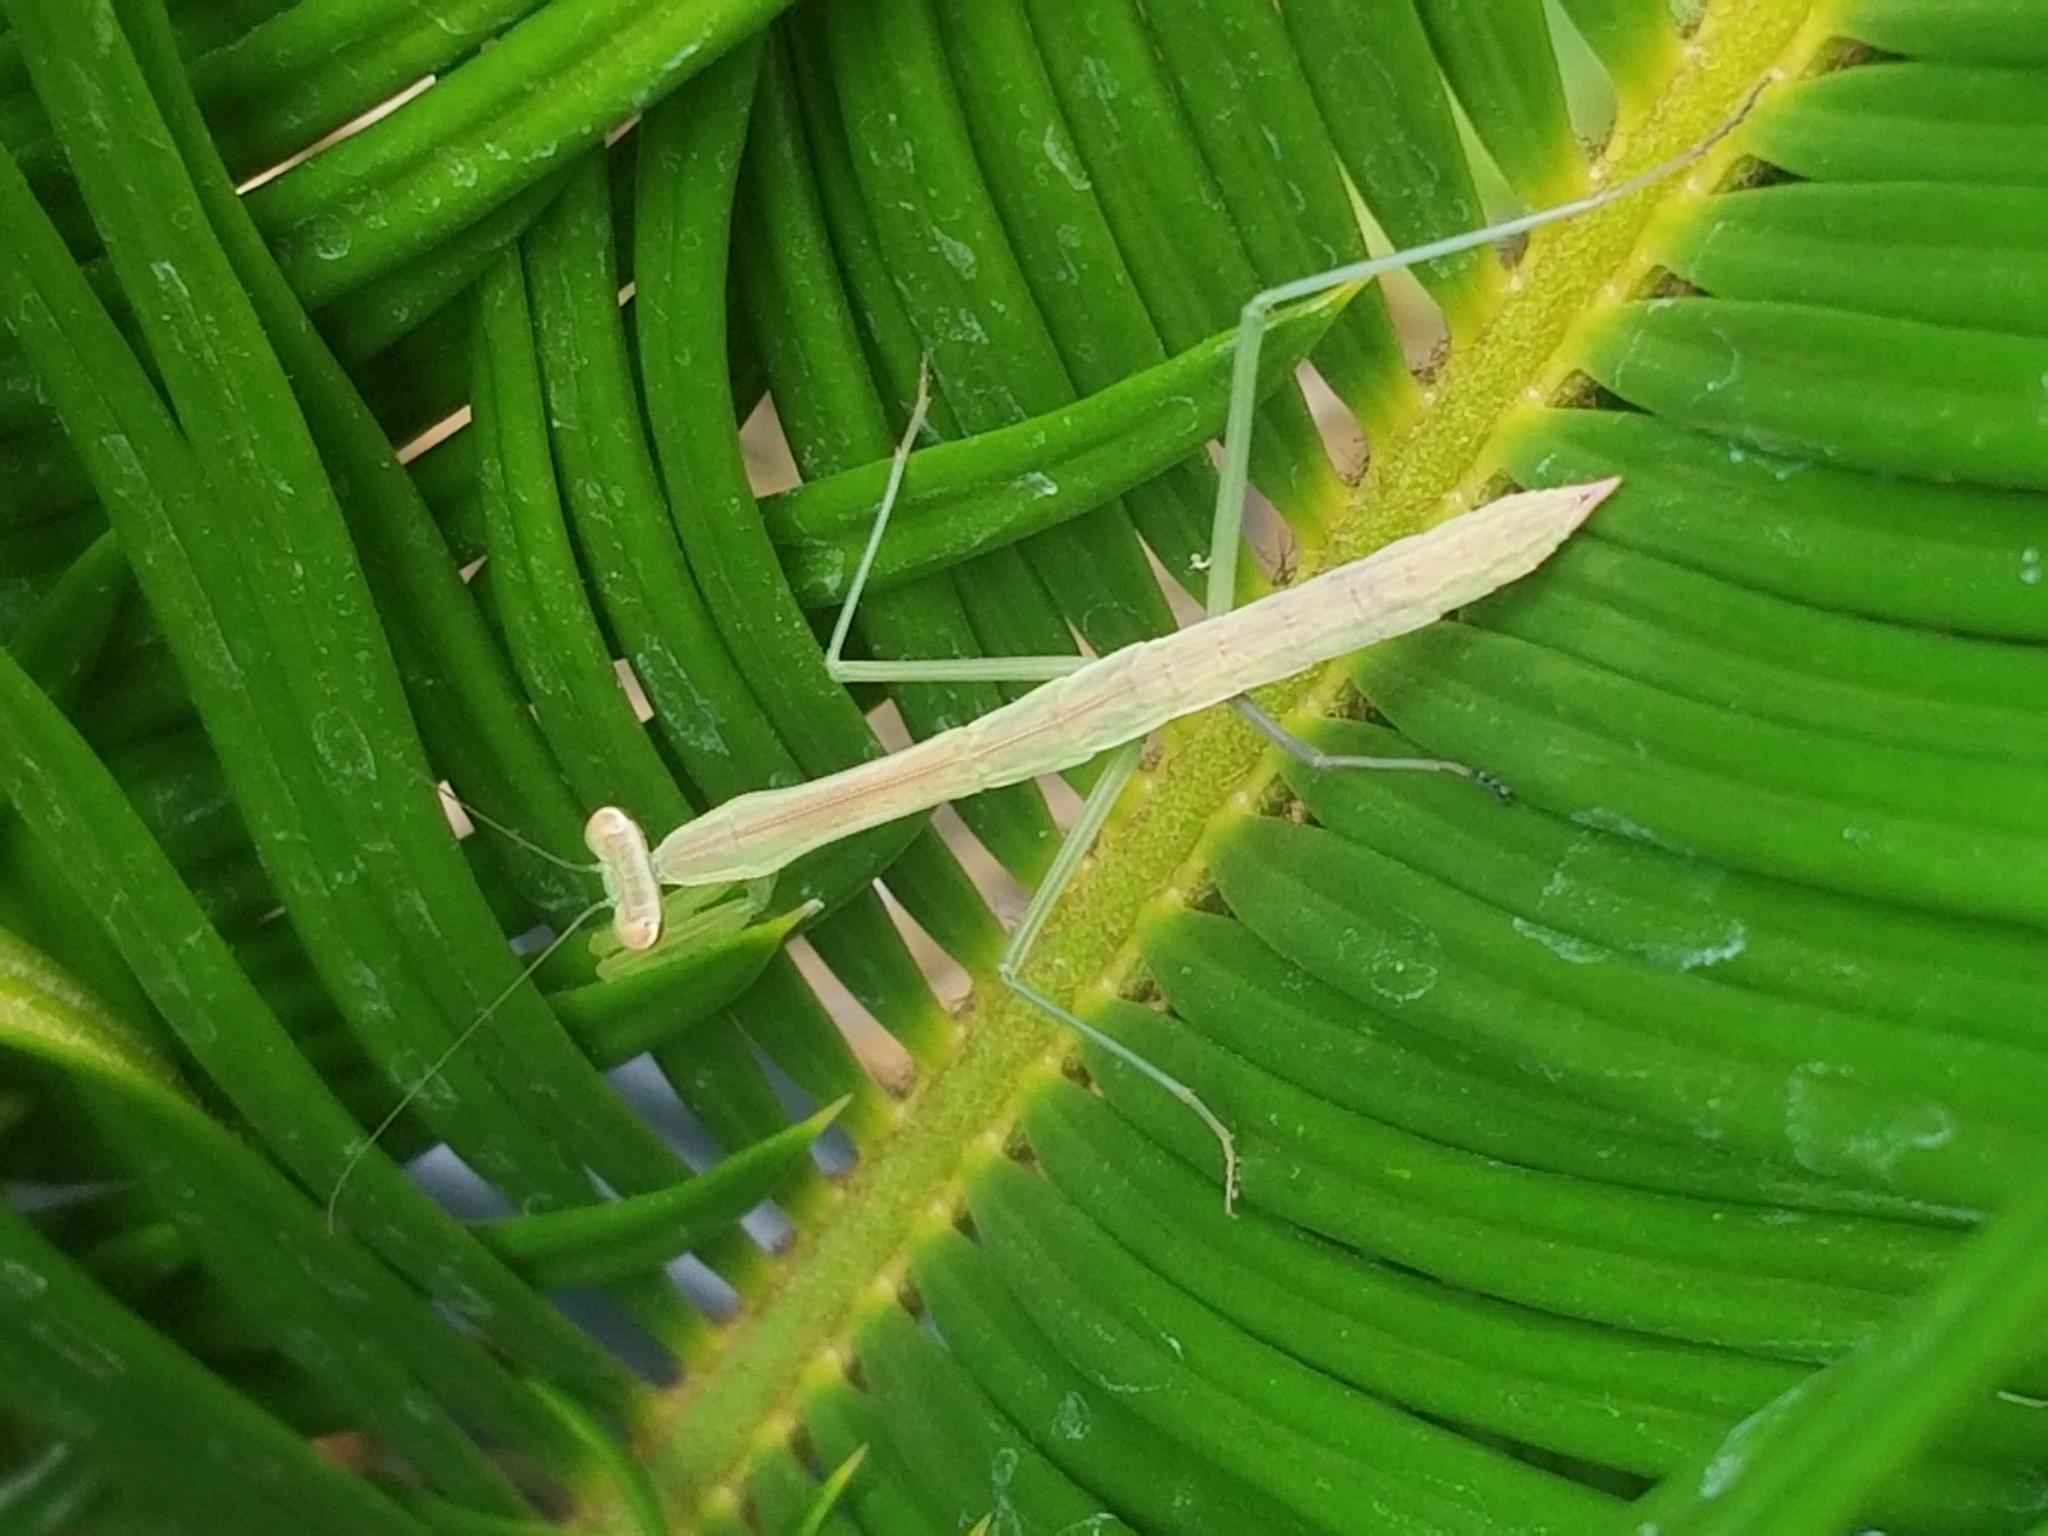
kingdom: Animalia
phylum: Arthropoda
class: Insecta
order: Mantodea
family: Mantidae
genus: Tenodera
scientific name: Tenodera sinensis
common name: Chinese mantis
